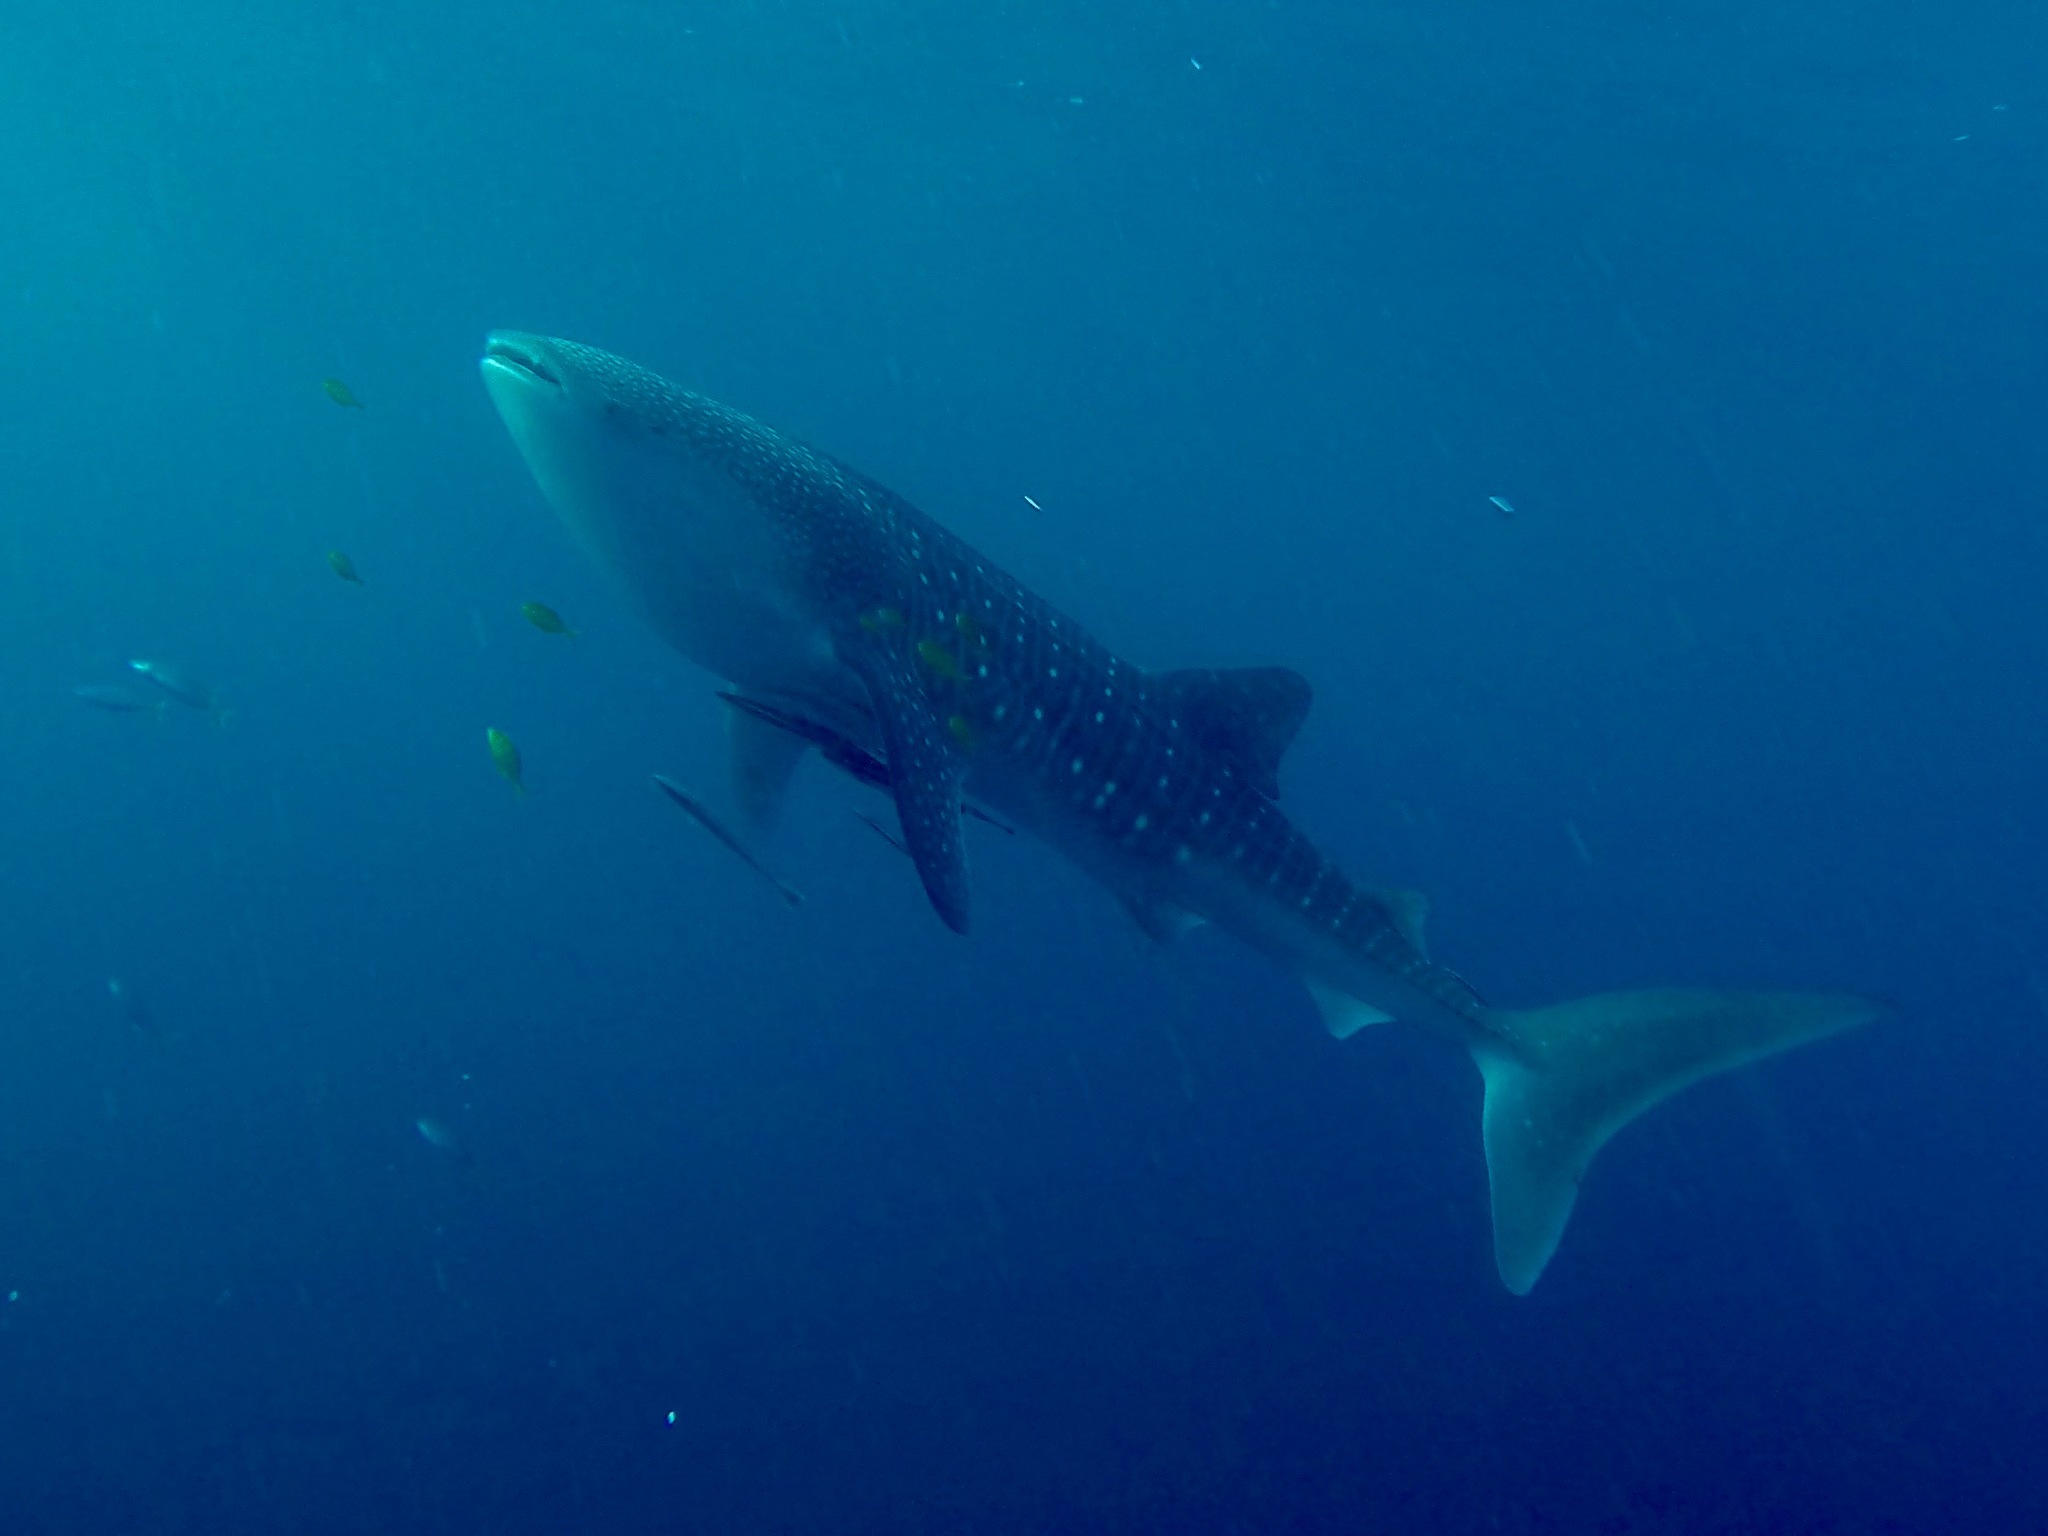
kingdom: Animalia
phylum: Chordata
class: Elasmobranchii
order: Orectolobiformes
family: Rhincodontidae
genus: Rhincodon
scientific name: Rhincodon typus
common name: Whale shark
